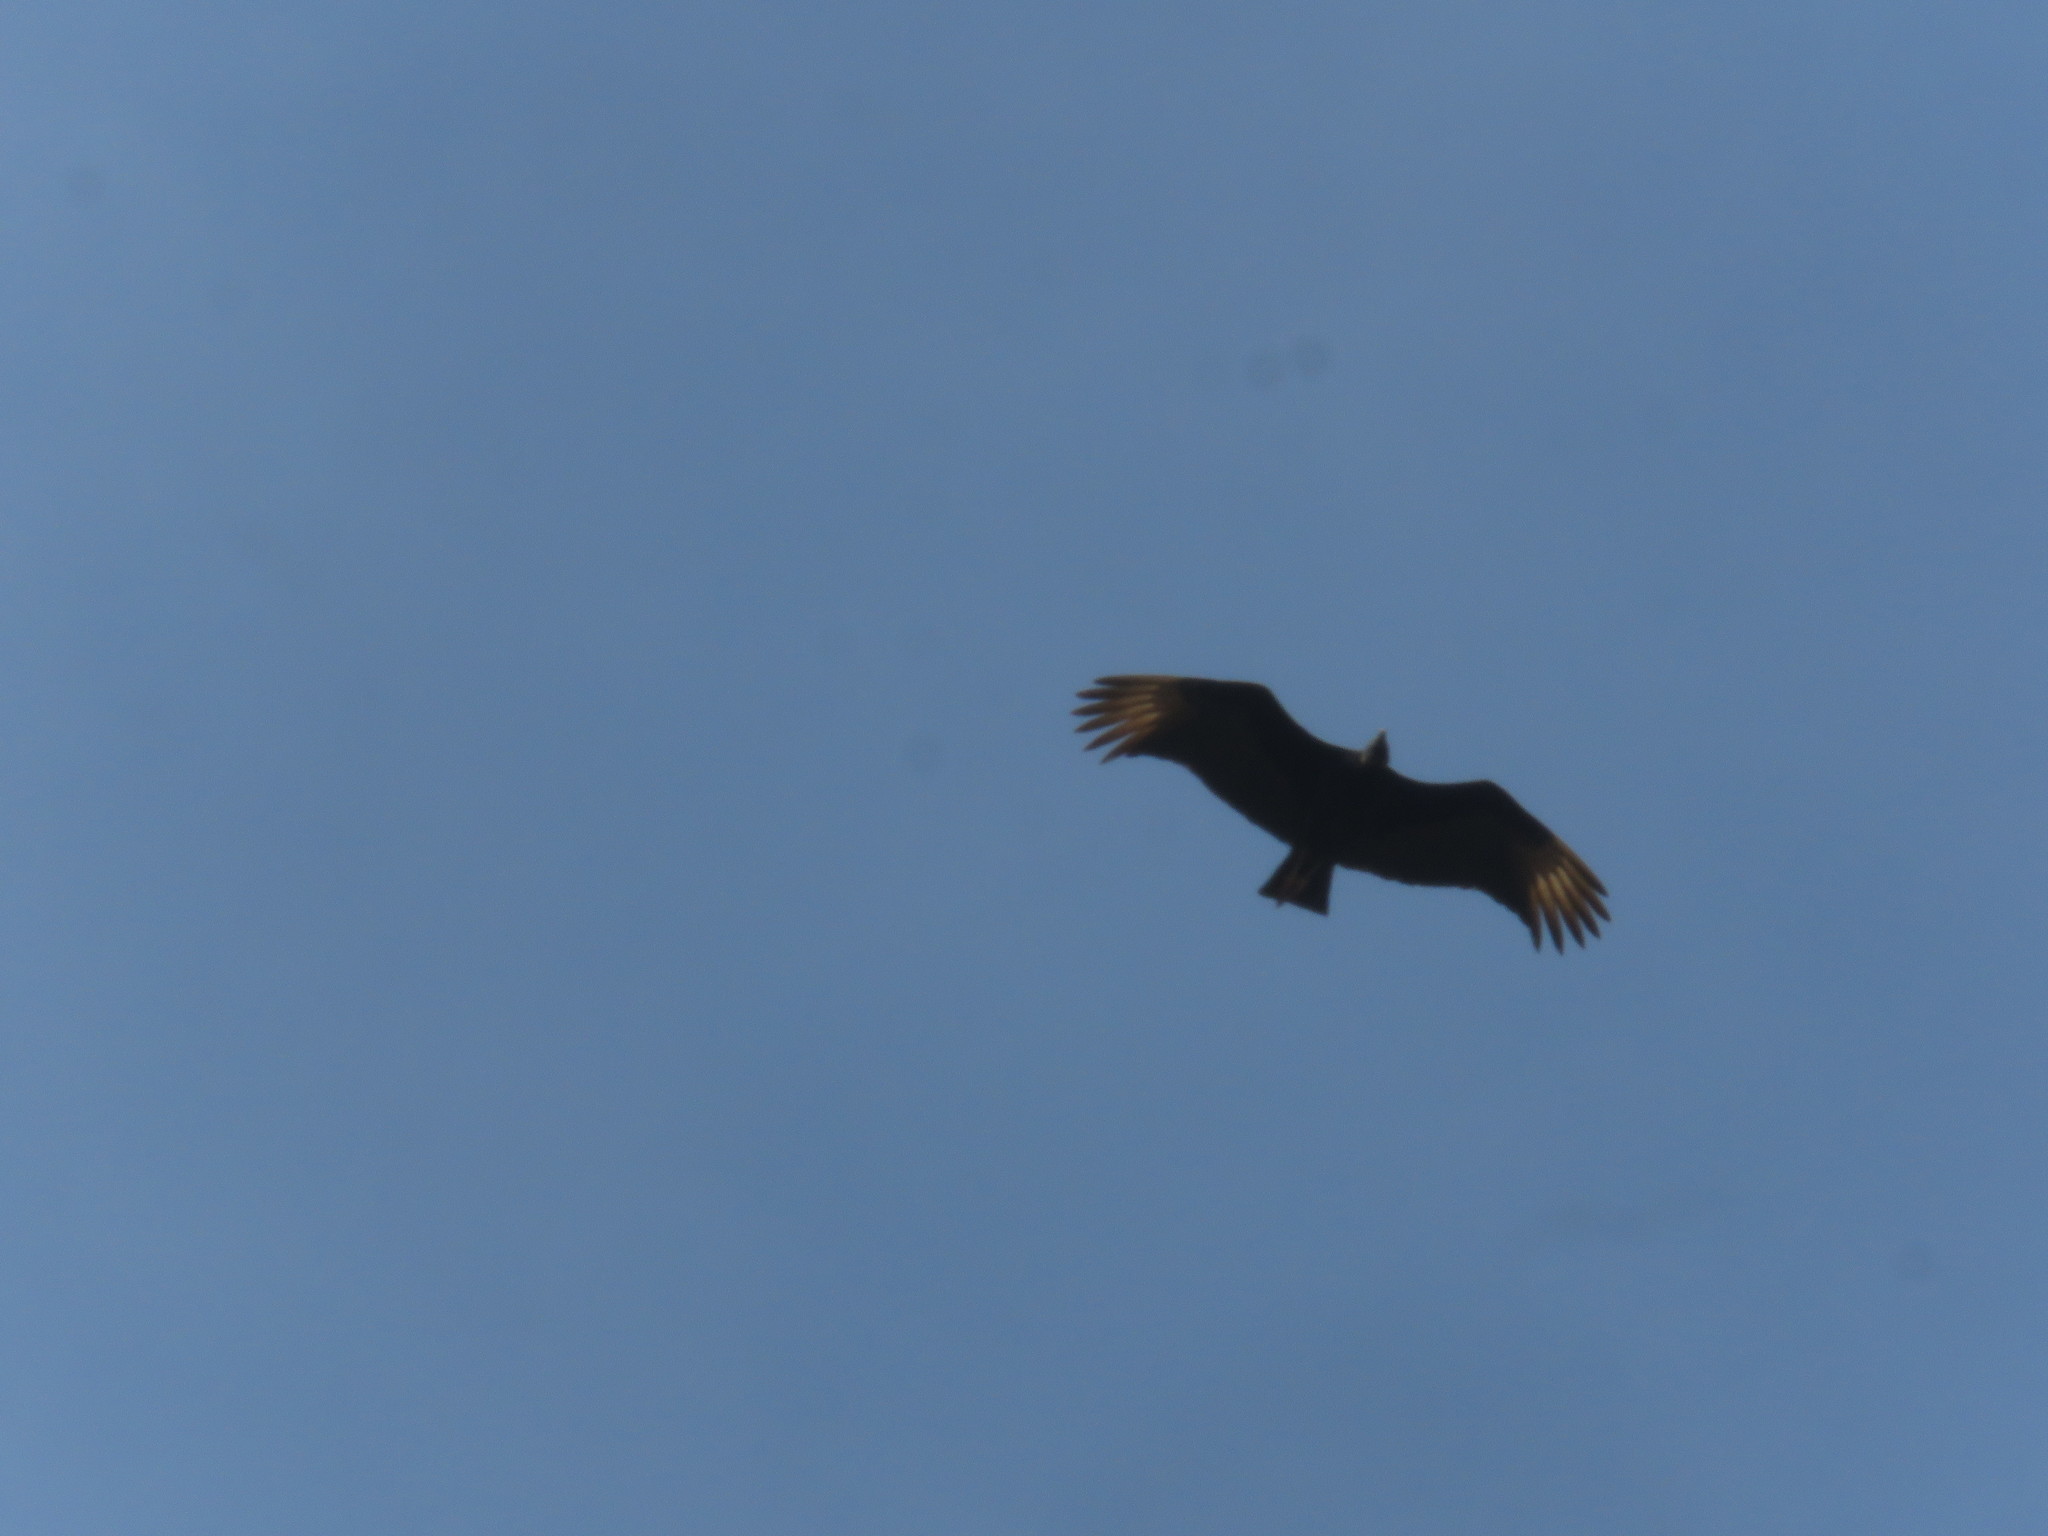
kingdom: Animalia
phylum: Chordata
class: Aves
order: Accipitriformes
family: Cathartidae
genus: Coragyps
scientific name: Coragyps atratus
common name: Black vulture
